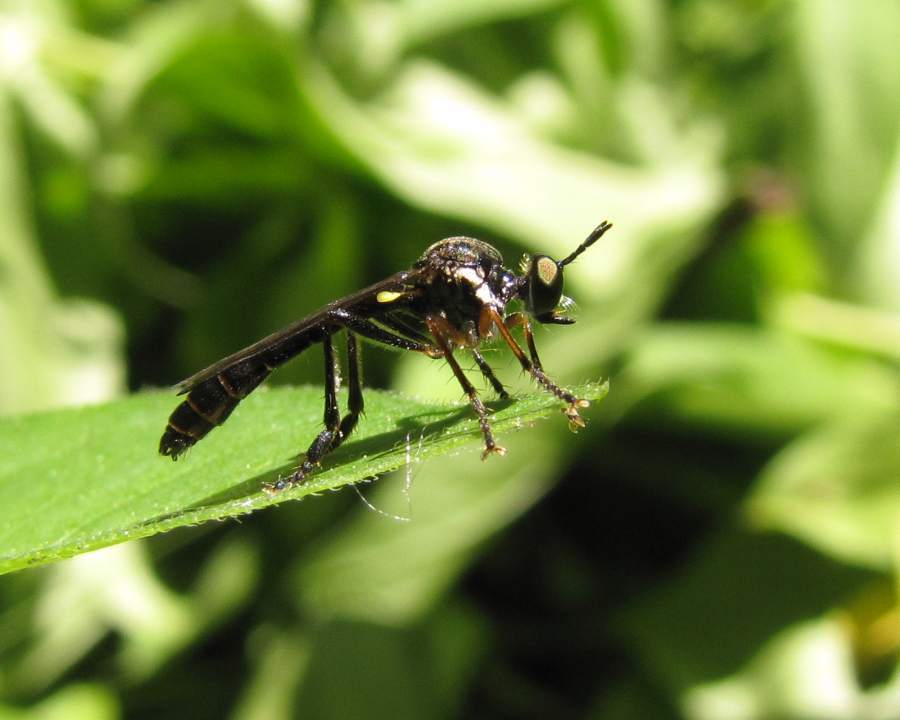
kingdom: Animalia
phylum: Arthropoda
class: Insecta
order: Diptera
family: Asilidae
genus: Dioctria
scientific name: Dioctria hyalipennis
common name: Stripe-legged robberfly
